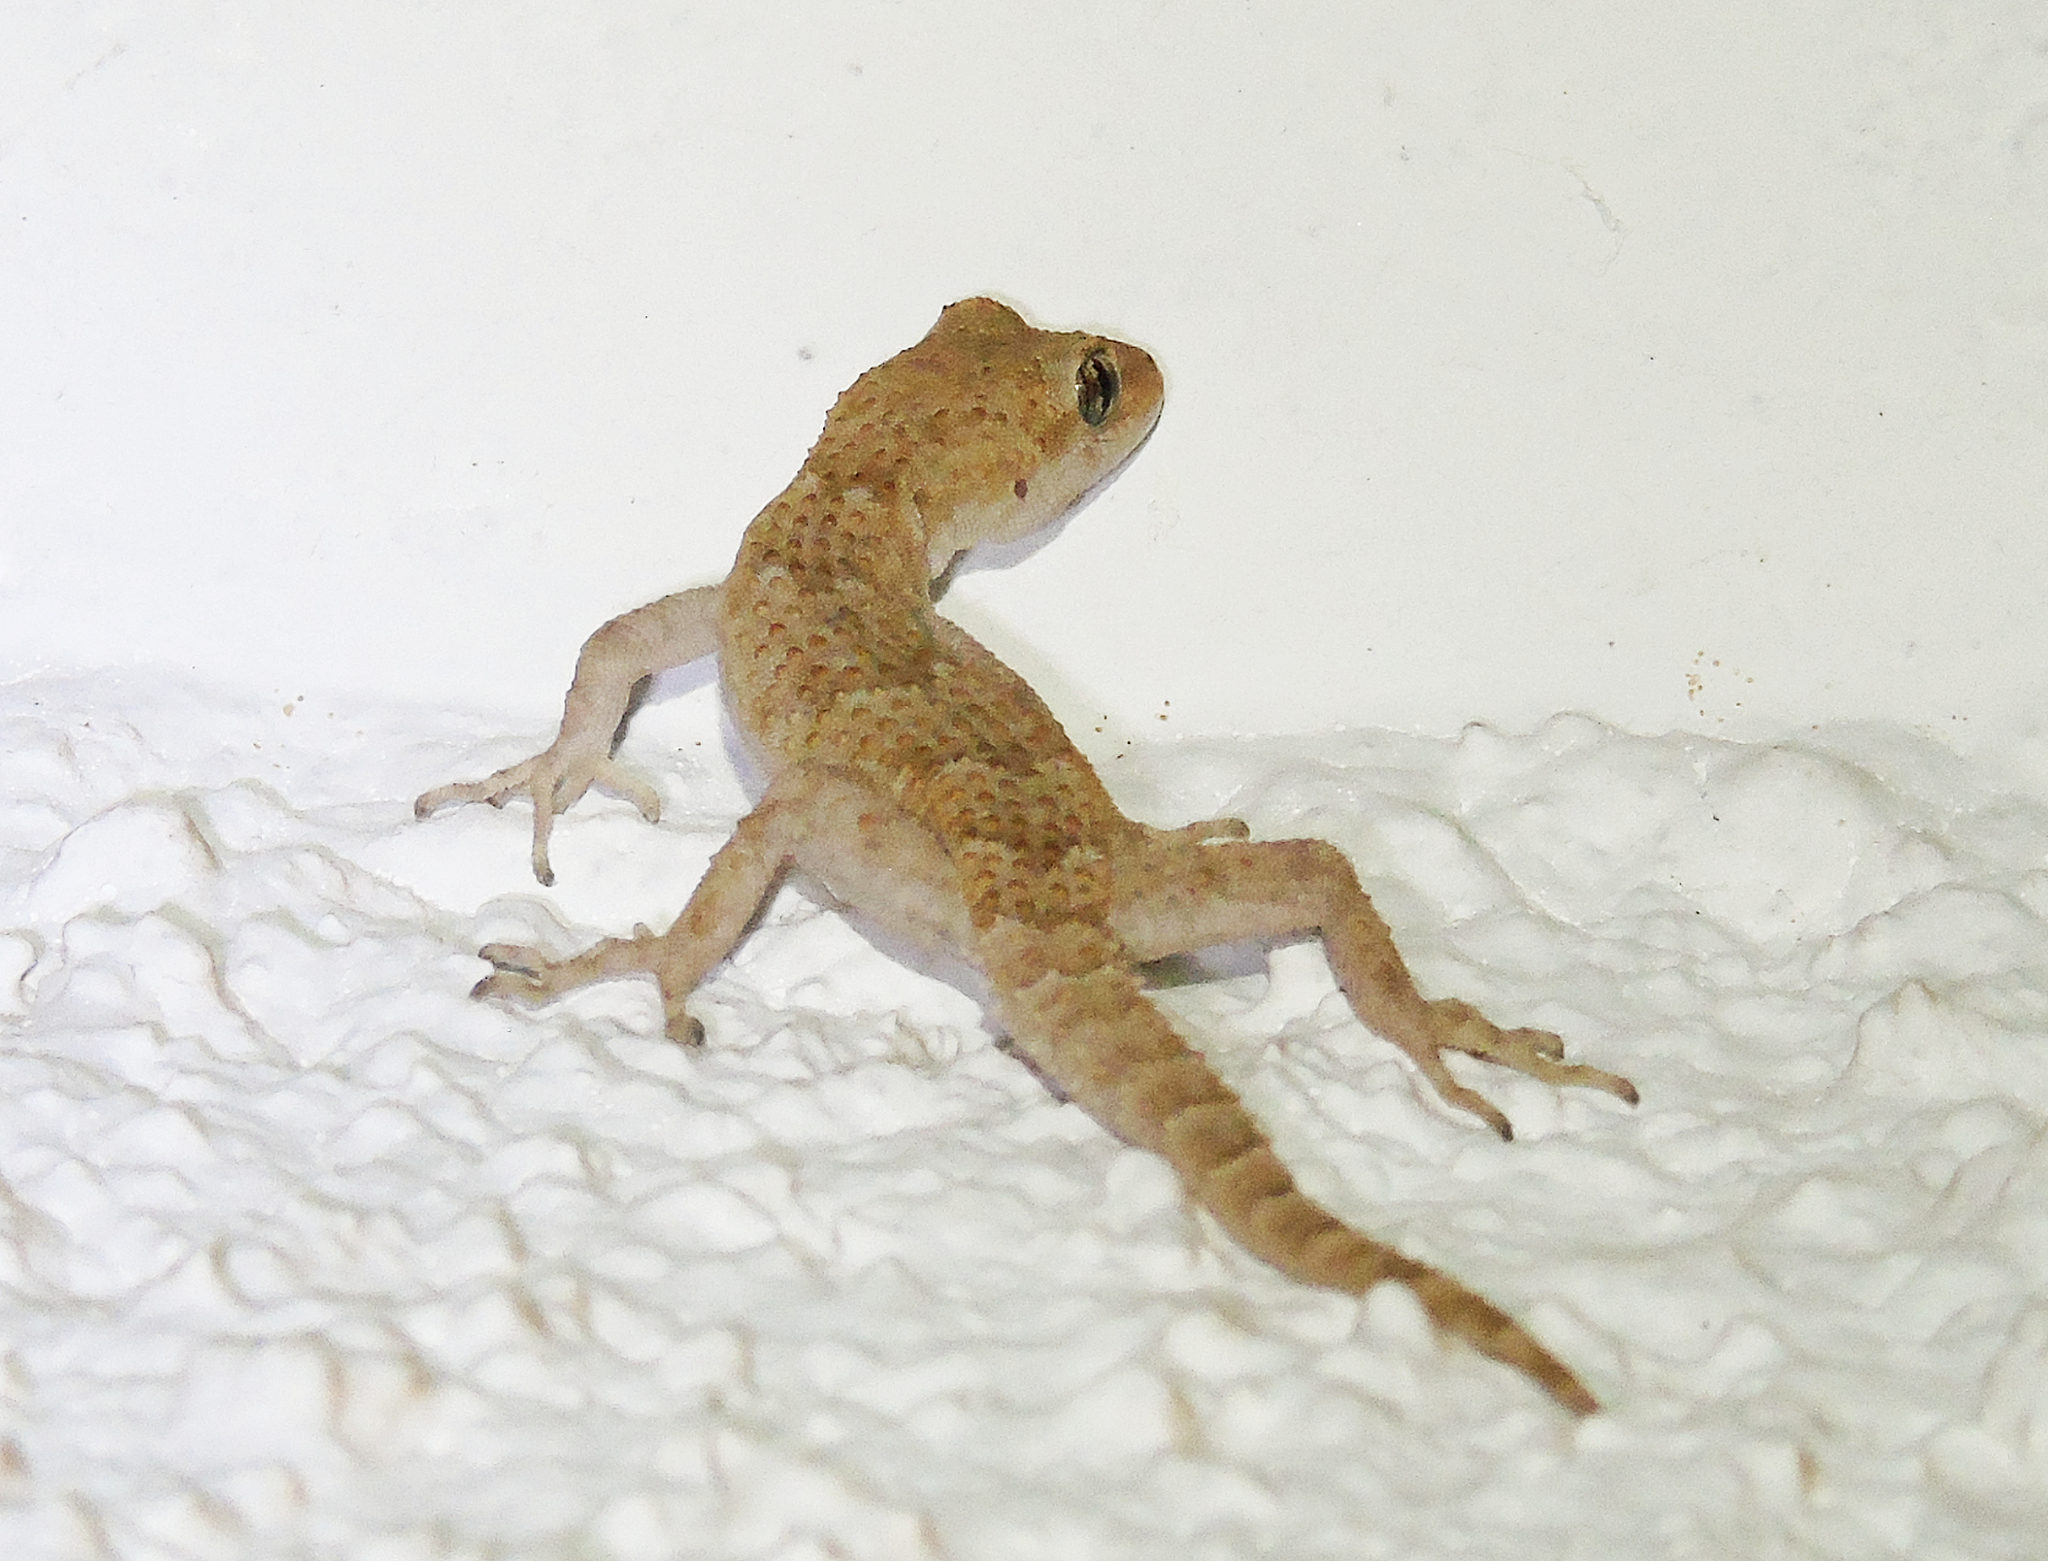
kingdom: Animalia
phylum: Chordata
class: Squamata
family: Gekkonidae
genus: Mediodactylus
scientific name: Mediodactylus kotschyi
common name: Kotschy's gecko
